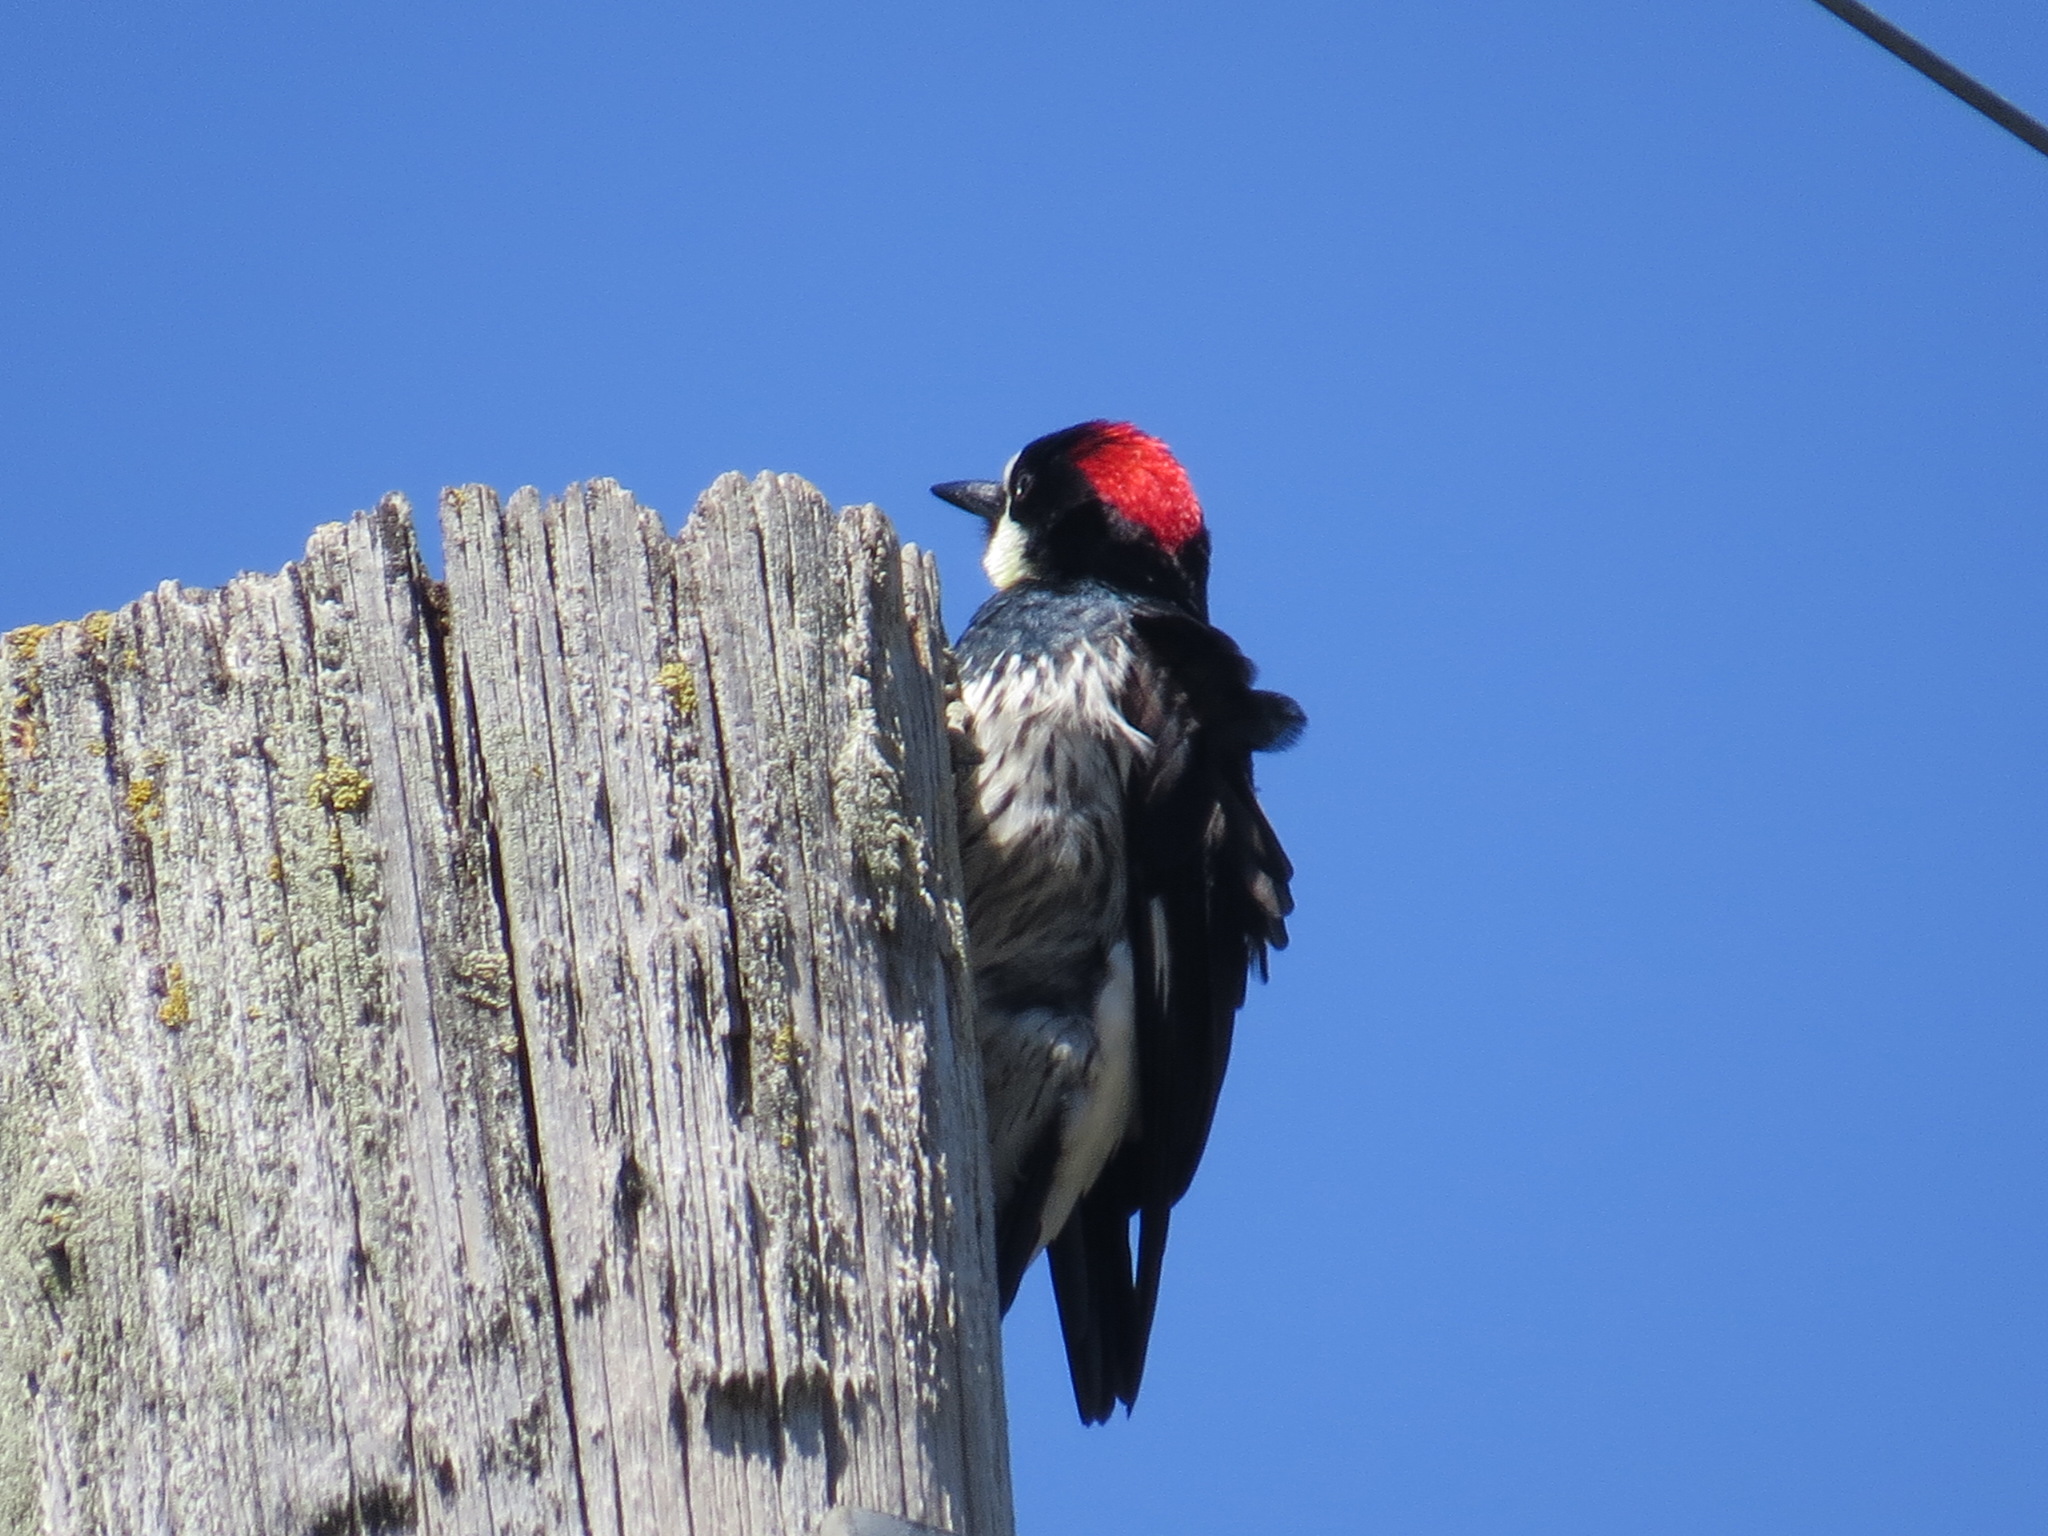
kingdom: Animalia
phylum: Chordata
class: Aves
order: Piciformes
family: Picidae
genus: Melanerpes
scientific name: Melanerpes formicivorus
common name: Acorn woodpecker
